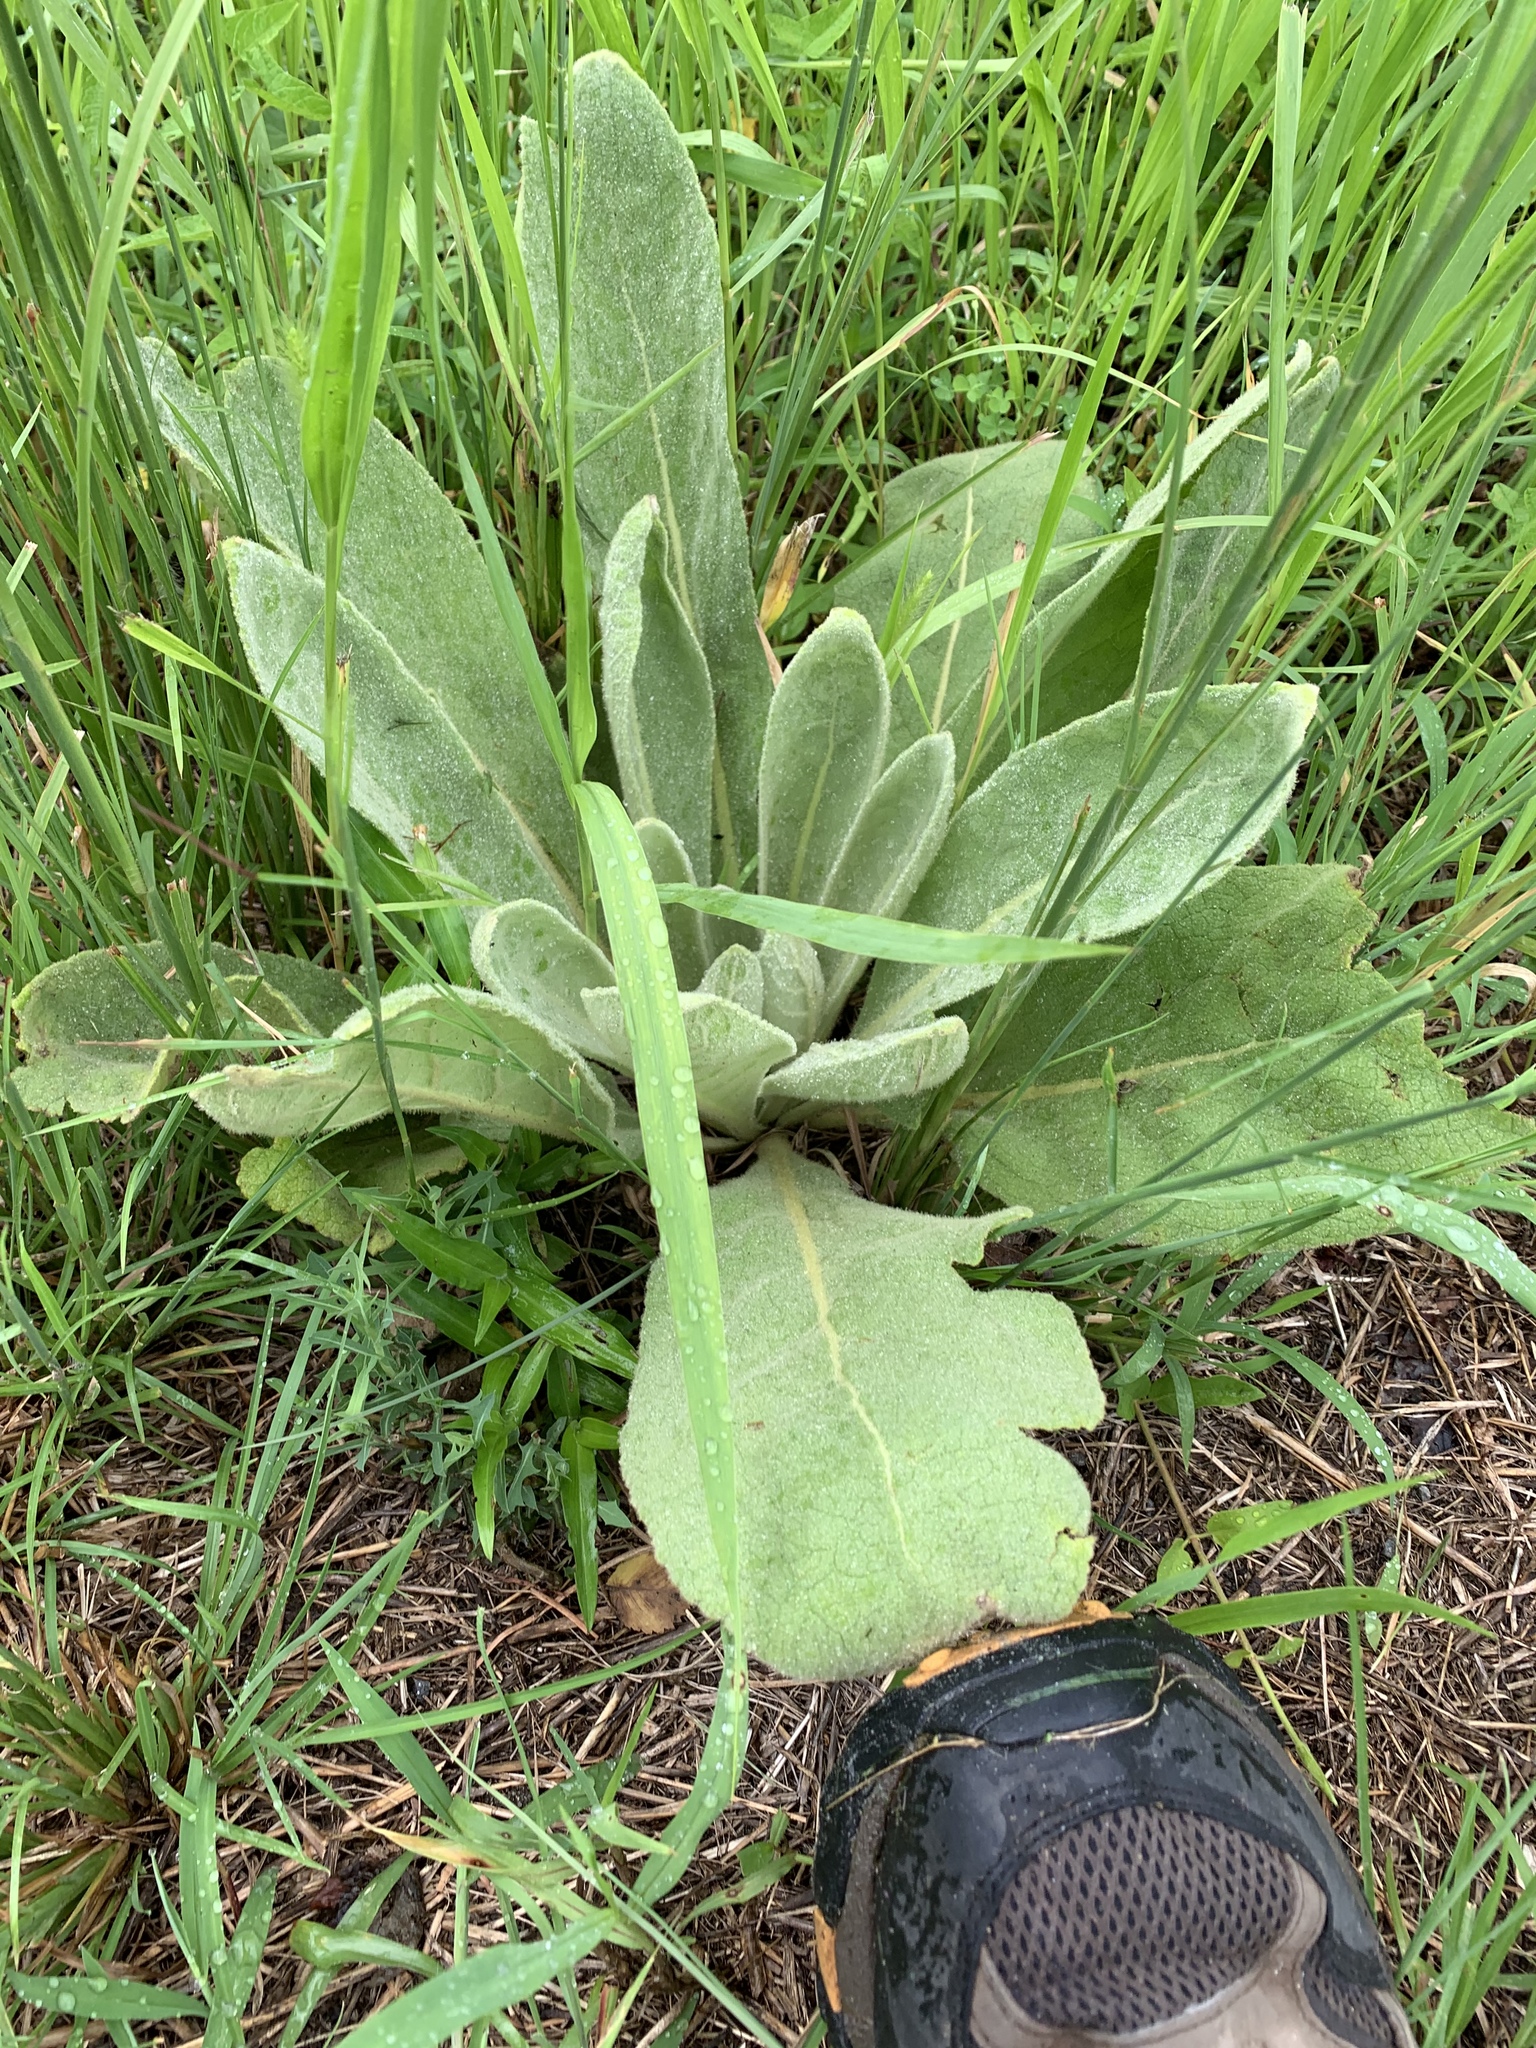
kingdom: Plantae
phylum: Tracheophyta
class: Magnoliopsida
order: Lamiales
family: Scrophulariaceae
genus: Verbascum
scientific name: Verbascum thapsus
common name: Common mullein
